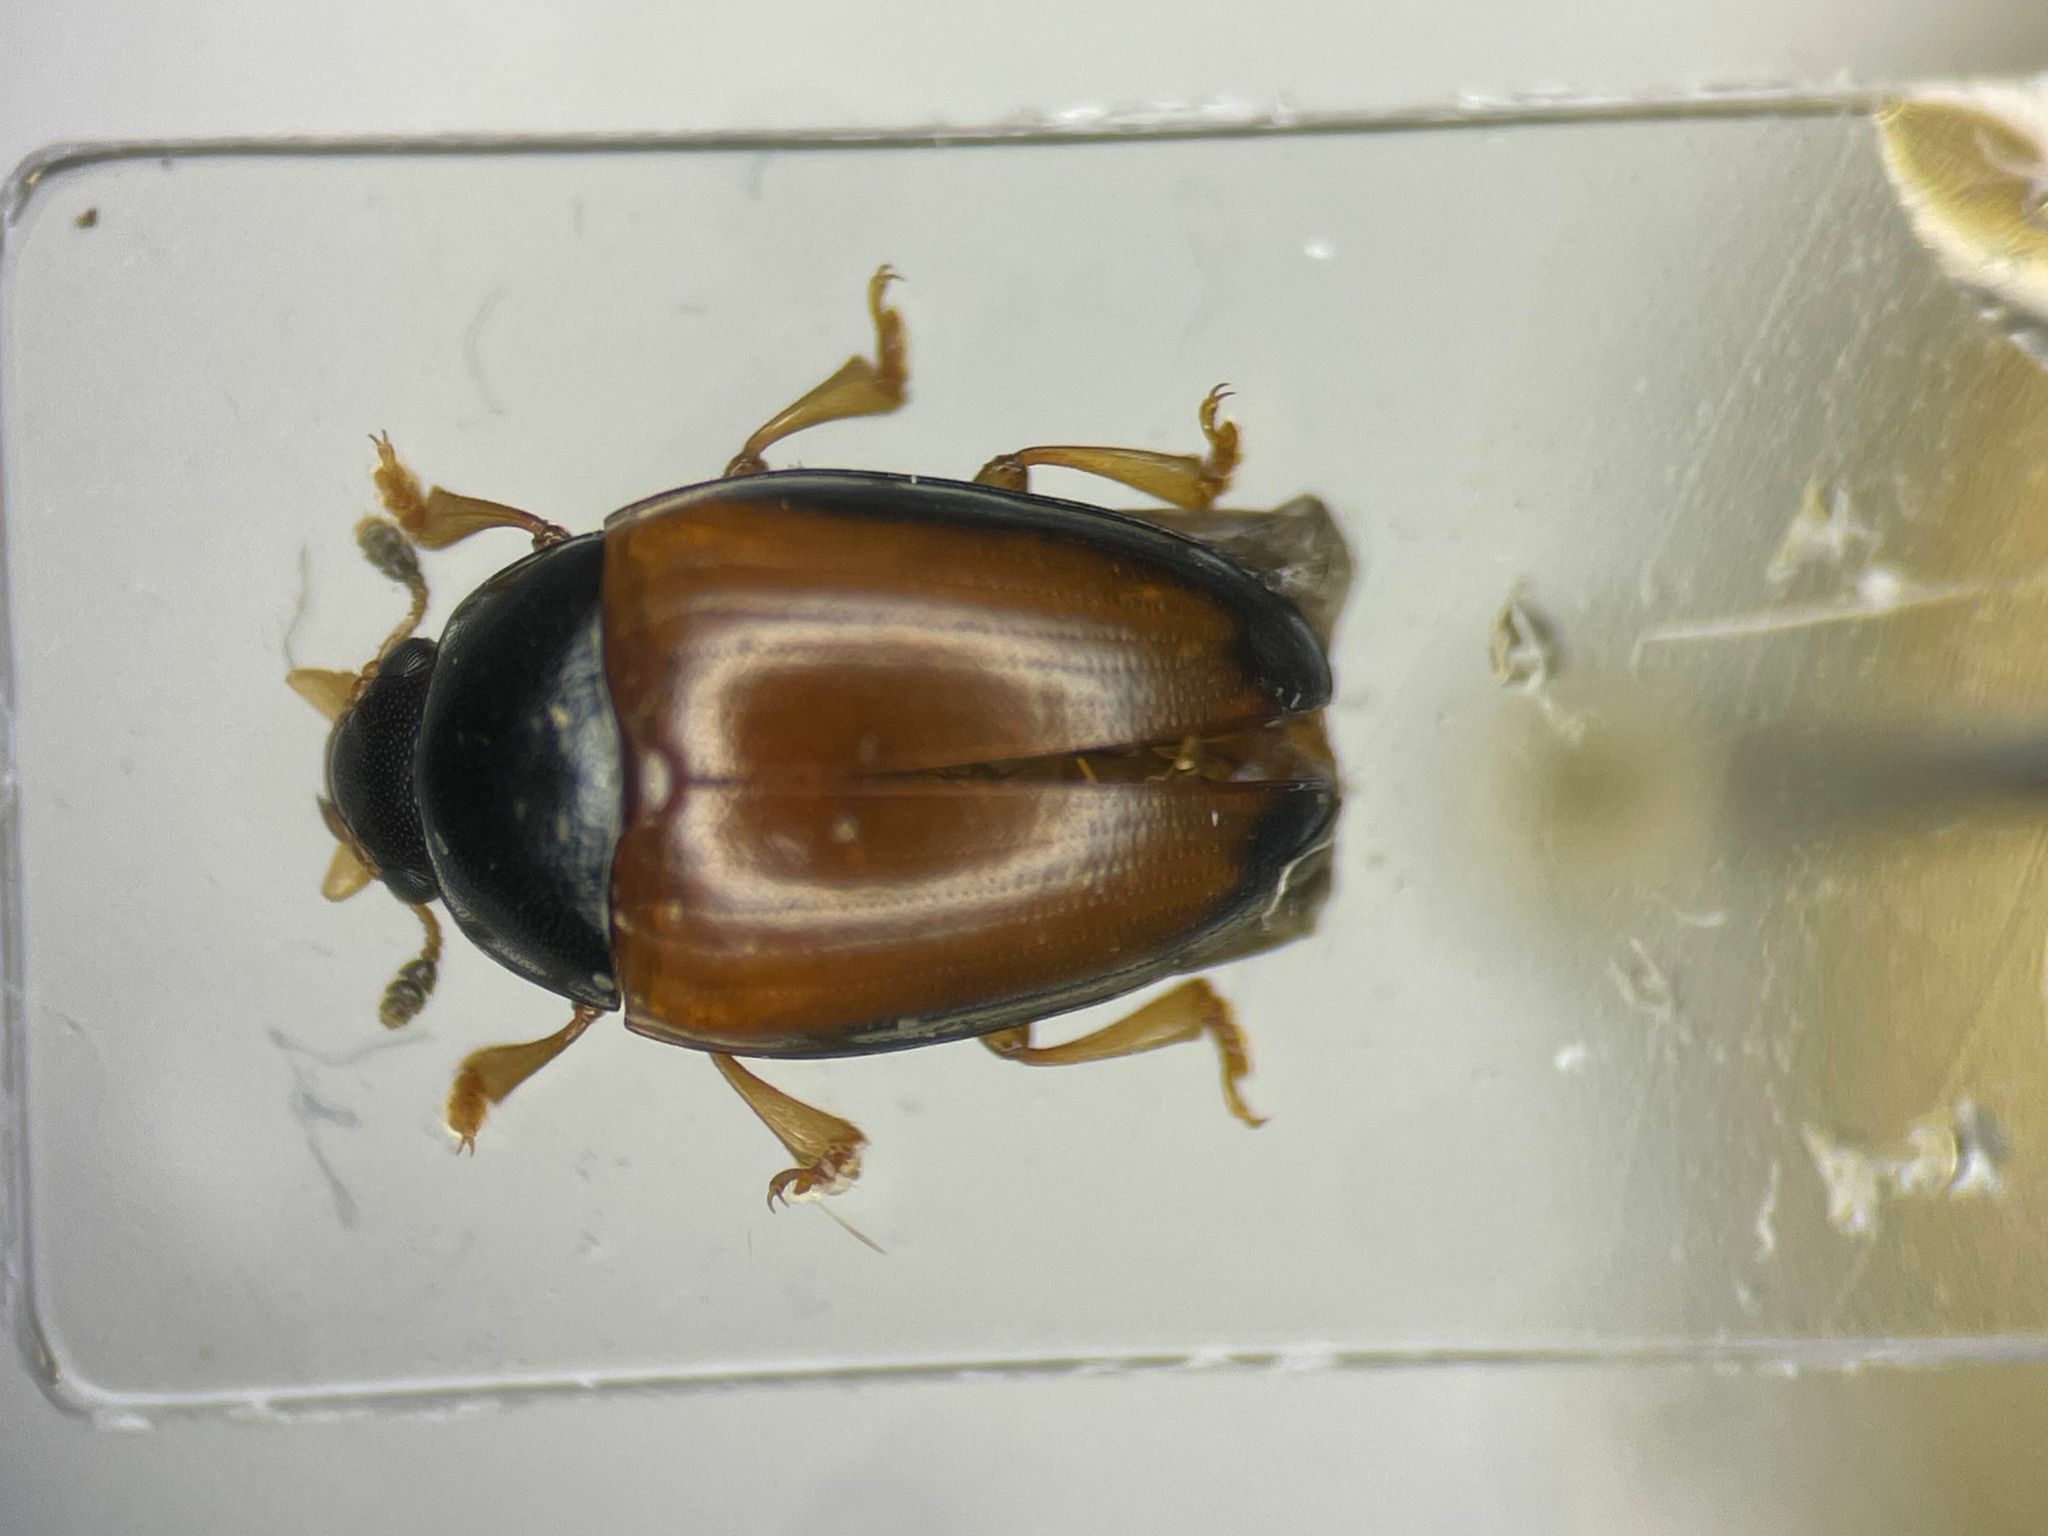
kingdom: Animalia
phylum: Arthropoda
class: Insecta
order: Coleoptera
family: Erotylidae
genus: Tritoma
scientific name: Tritoma mimetica
